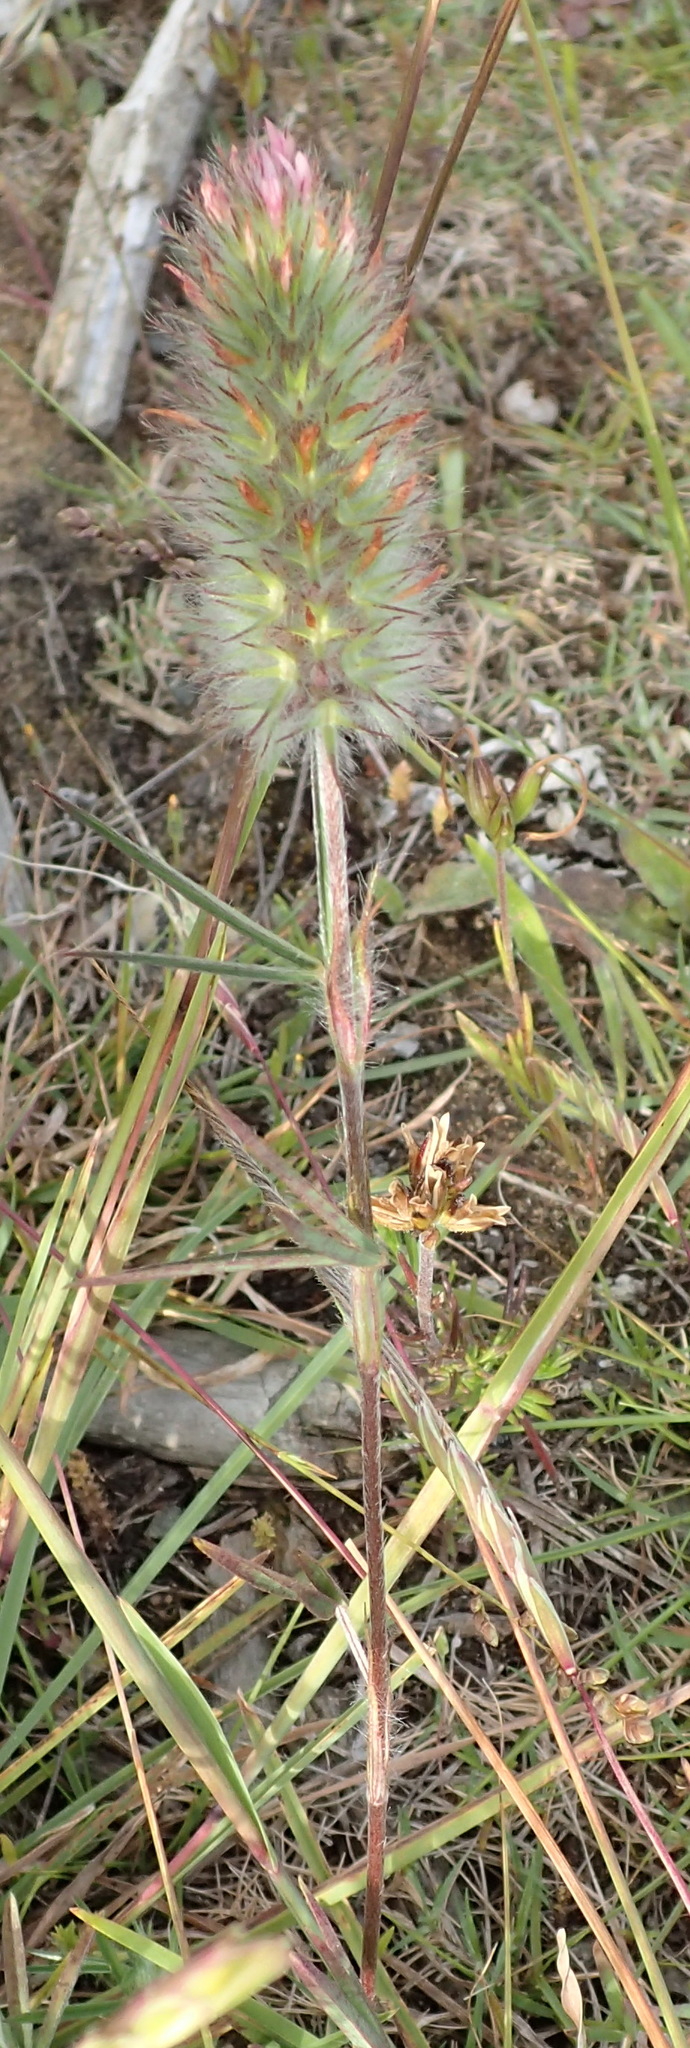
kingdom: Plantae
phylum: Tracheophyta
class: Magnoliopsida
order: Fabales
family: Fabaceae
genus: Trifolium
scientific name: Trifolium angustifolium
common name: Narrow clover
